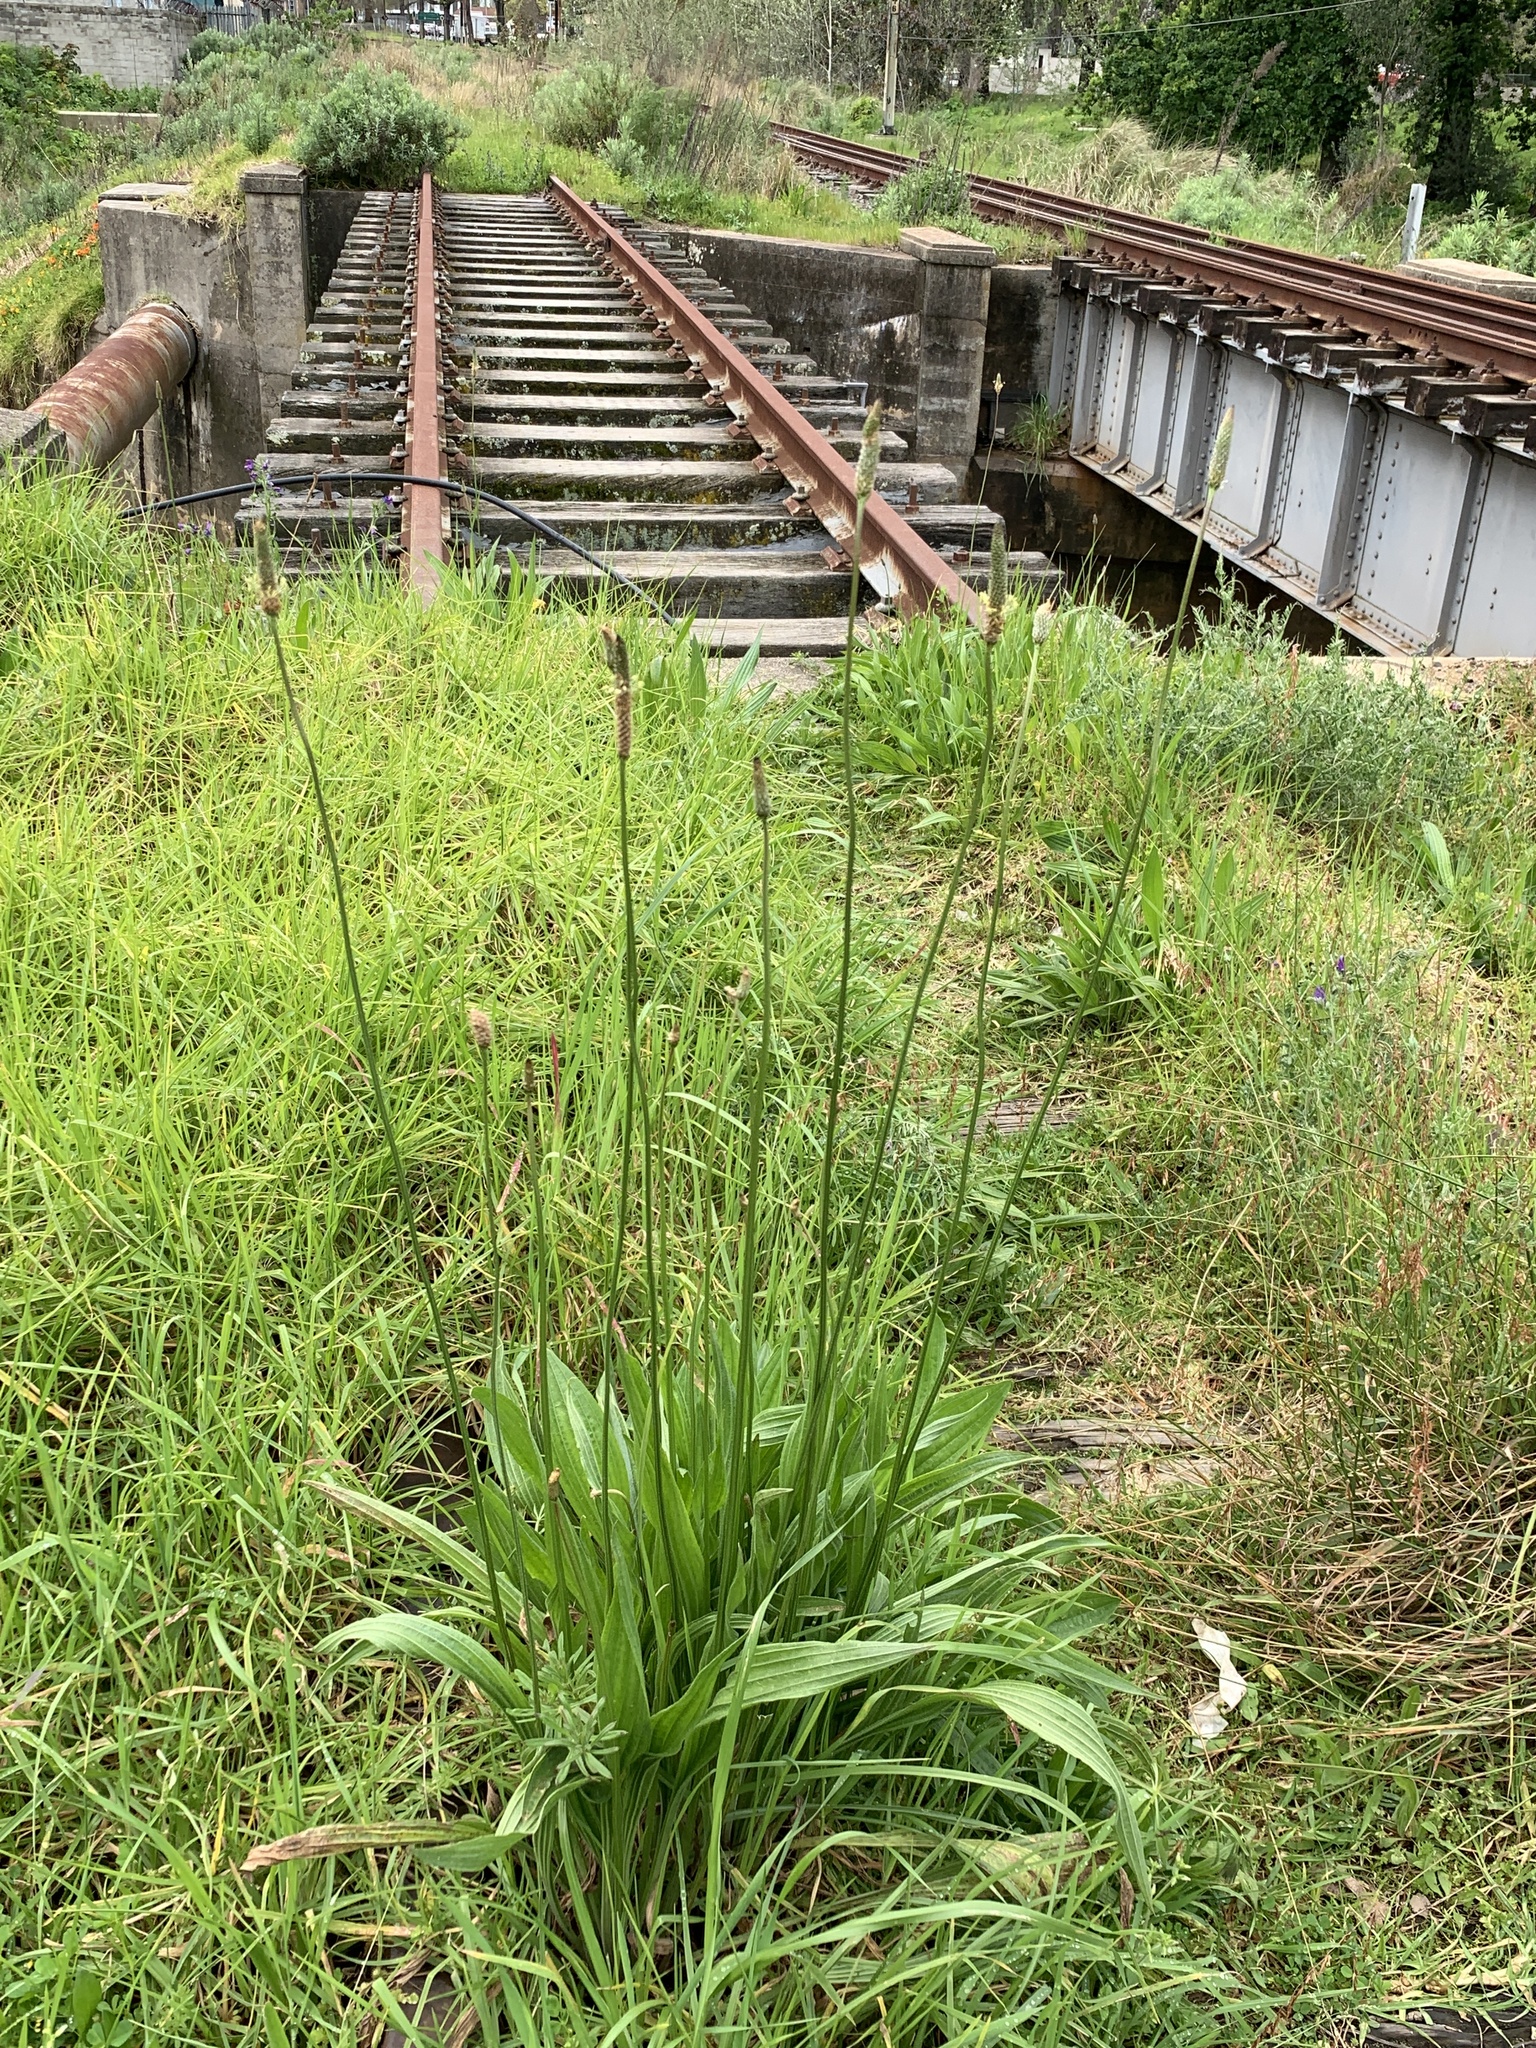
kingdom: Plantae
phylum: Tracheophyta
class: Magnoliopsida
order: Lamiales
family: Plantaginaceae
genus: Plantago
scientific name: Plantago lanceolata
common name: Ribwort plantain
